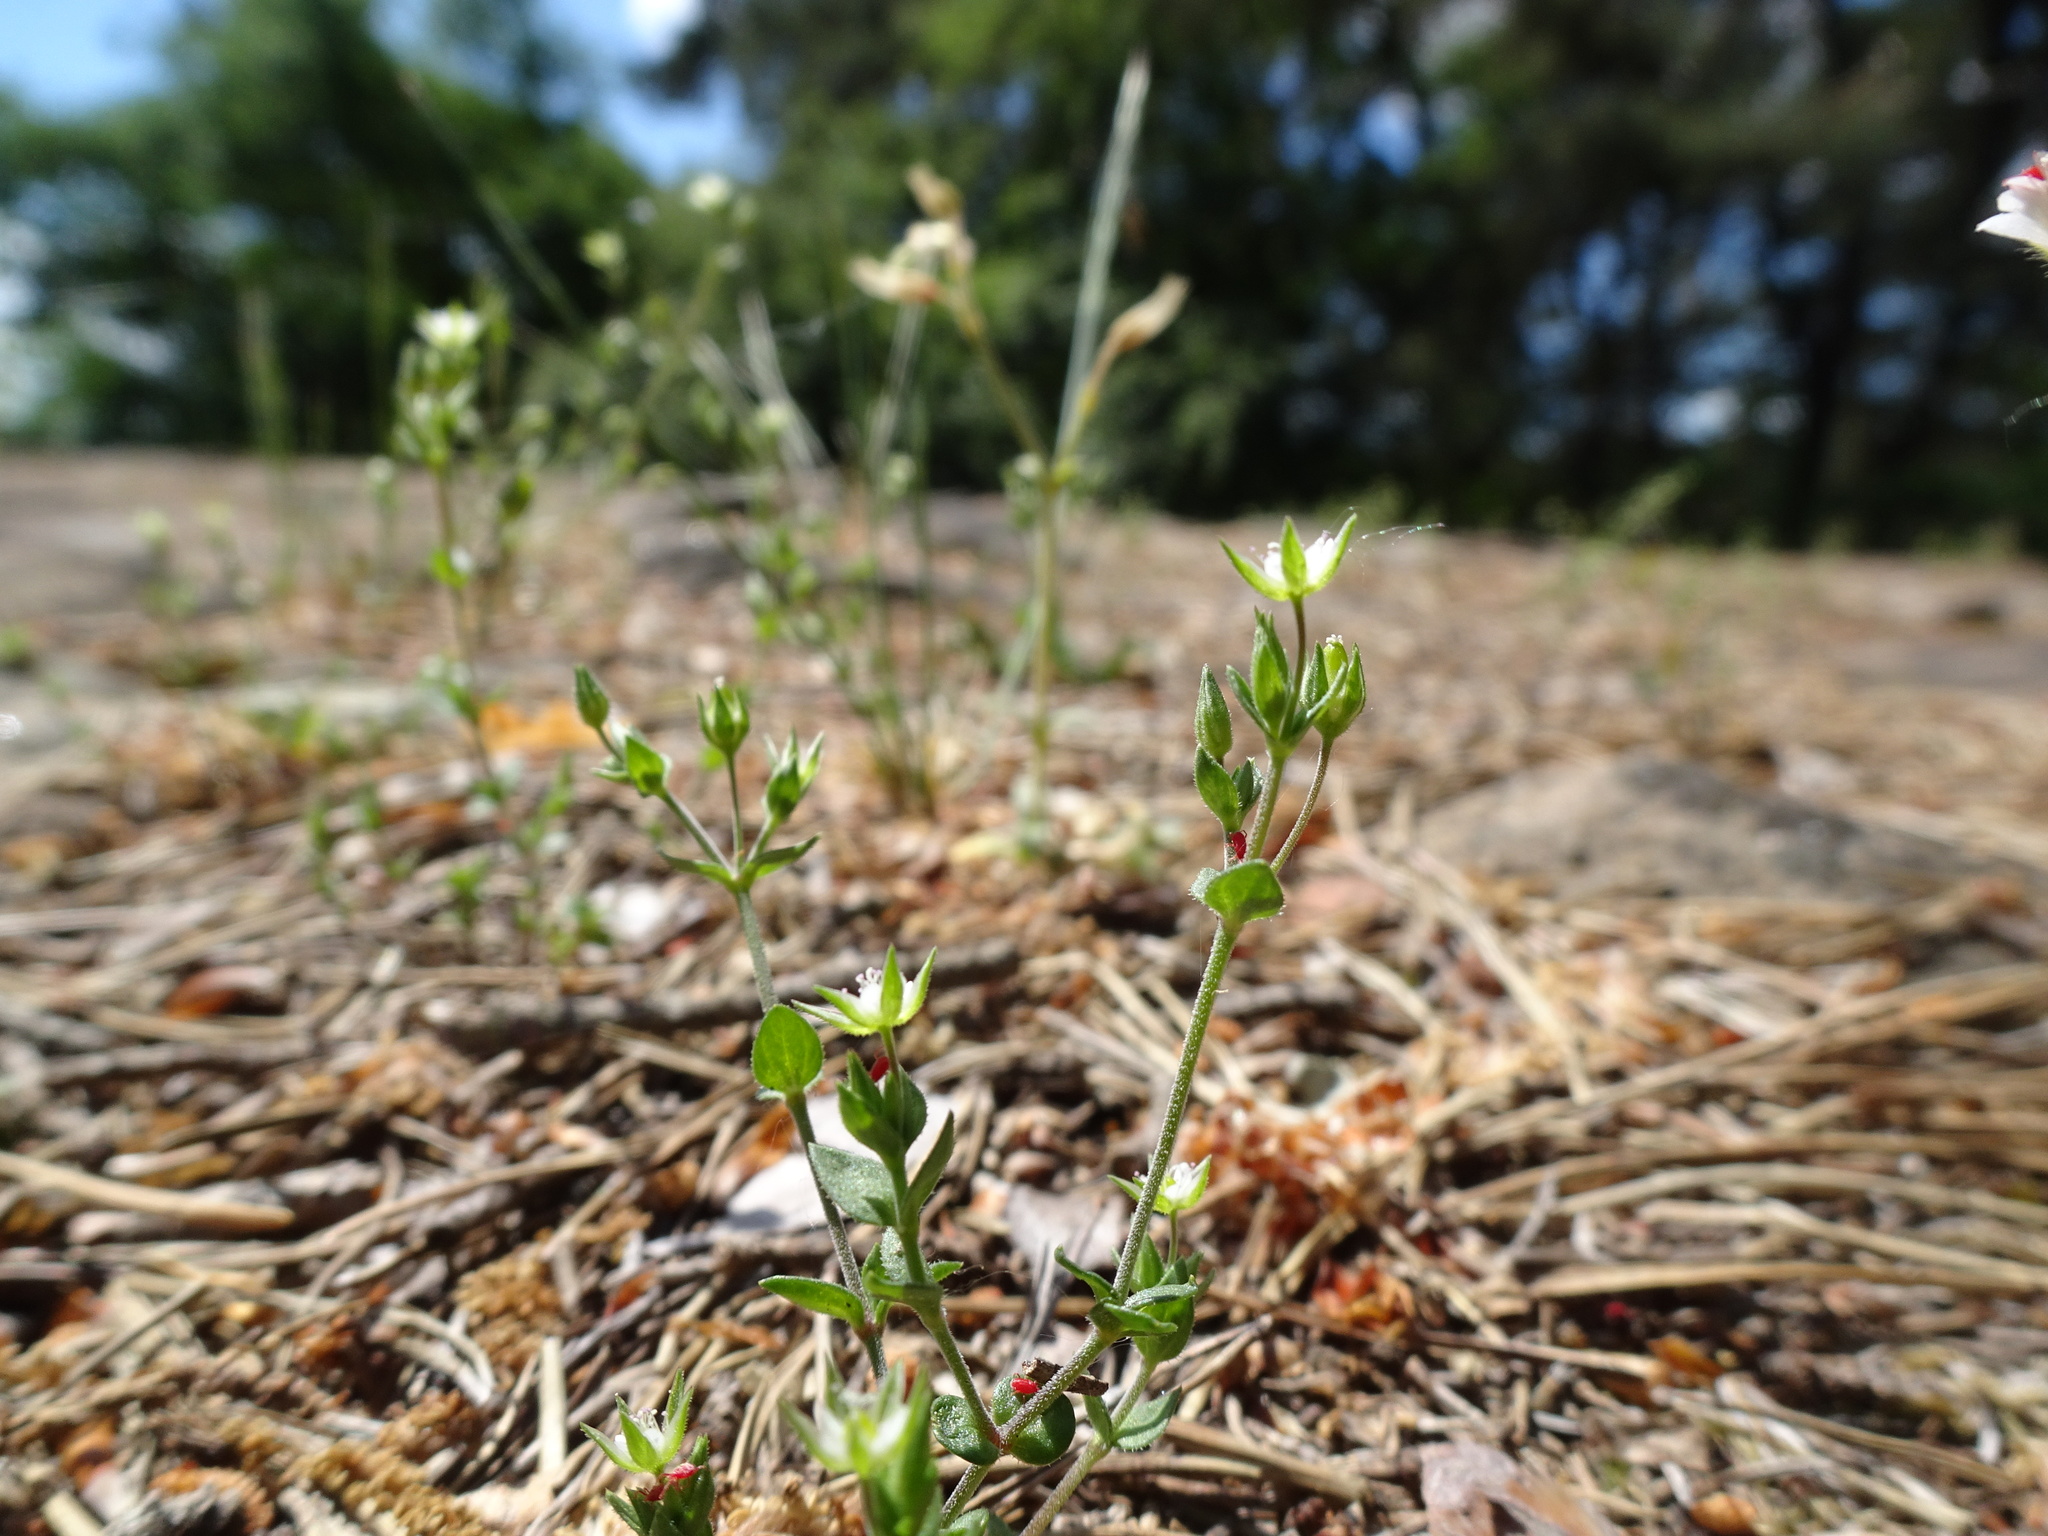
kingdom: Plantae
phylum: Tracheophyta
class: Magnoliopsida
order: Caryophyllales
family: Caryophyllaceae
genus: Arenaria
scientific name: Arenaria serpyllifolia
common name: Thyme-leaved sandwort
